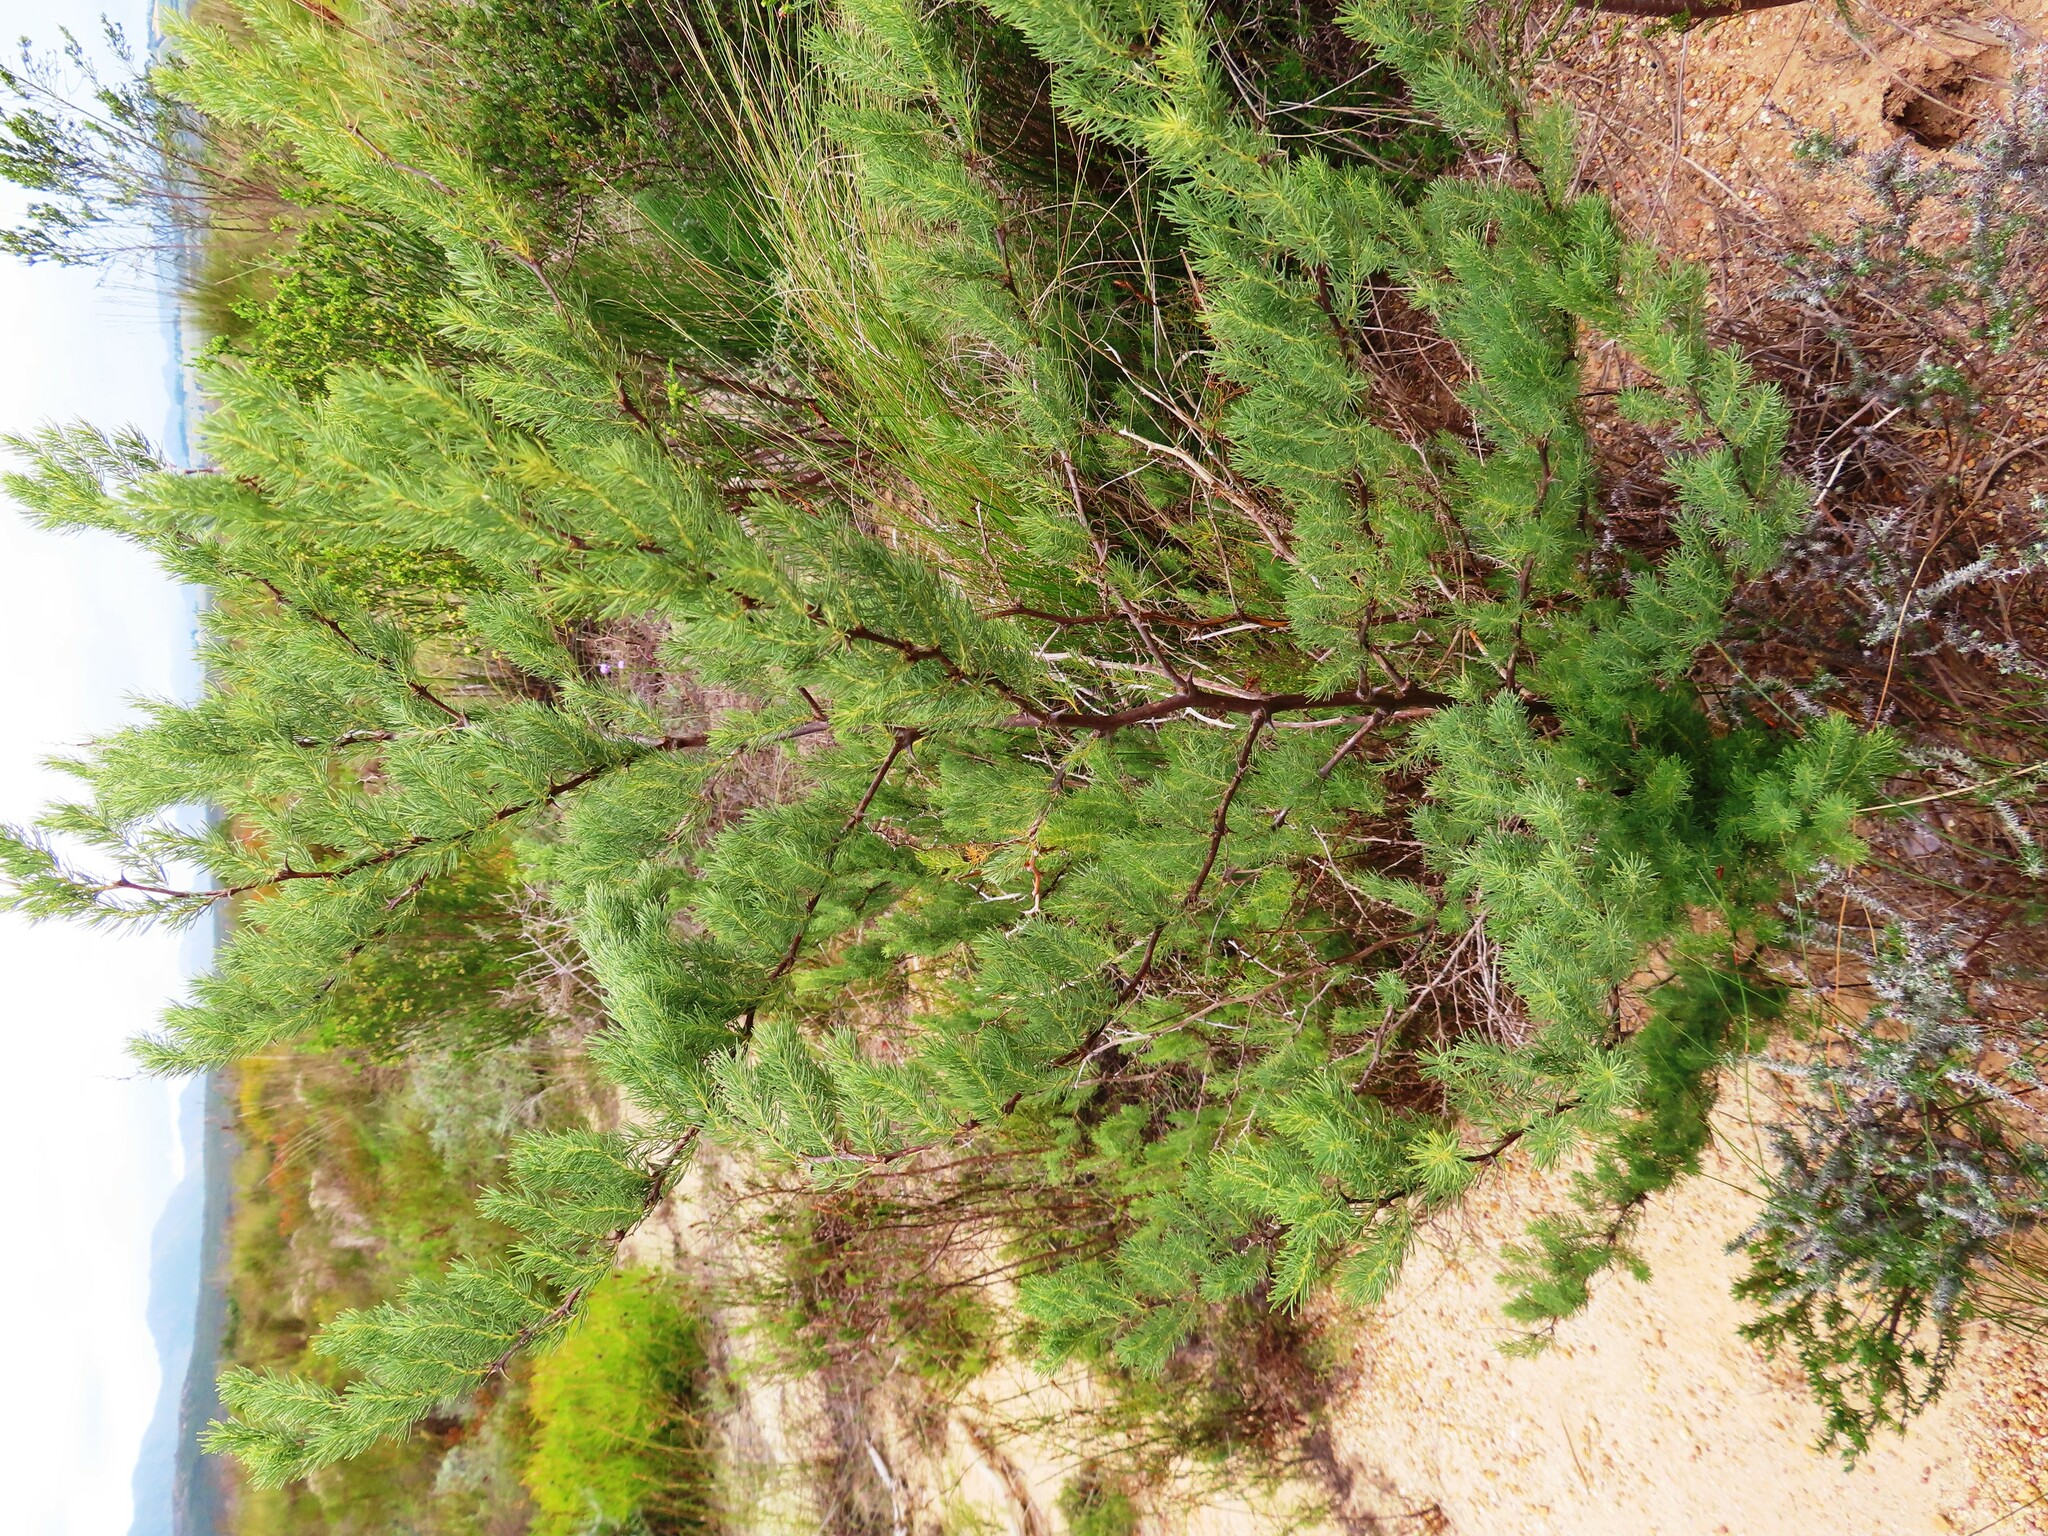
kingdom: Plantae
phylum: Tracheophyta
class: Liliopsida
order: Asparagales
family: Asparagaceae
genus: Asparagus
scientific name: Asparagus rubicundus
